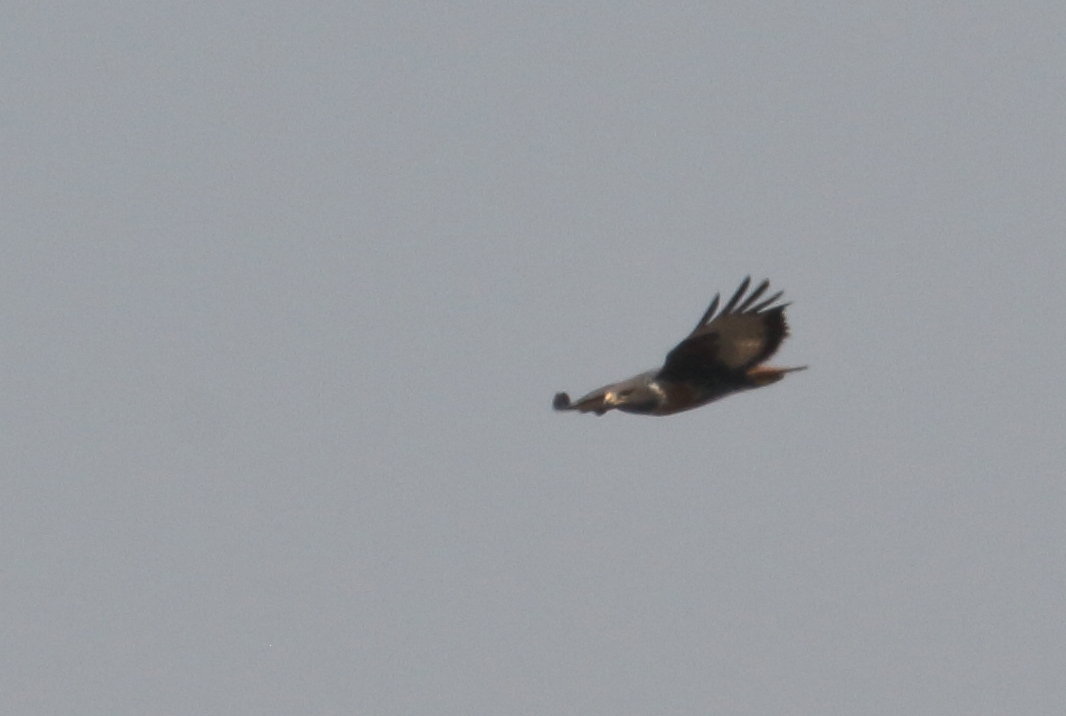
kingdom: Animalia
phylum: Chordata
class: Aves
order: Accipitriformes
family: Accipitridae
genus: Buteo
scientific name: Buteo rufofuscus
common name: Jackal buzzard
